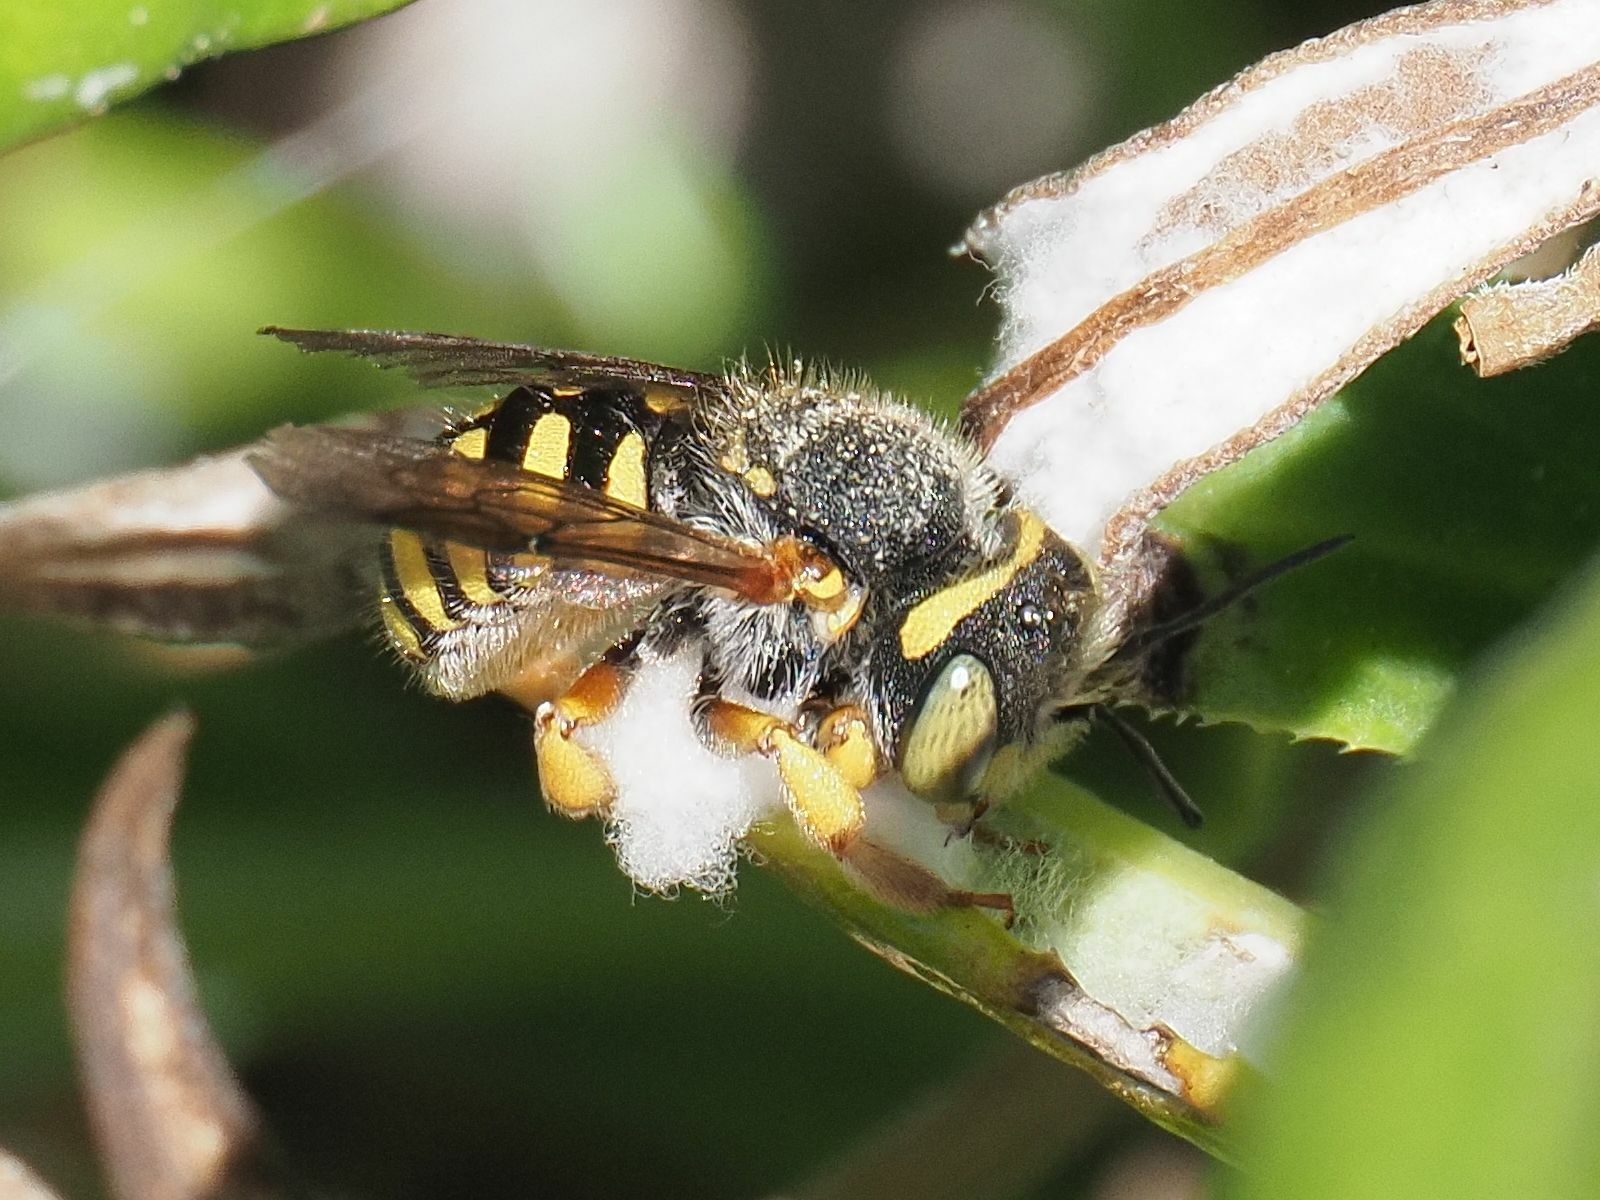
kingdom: Animalia
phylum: Arthropoda
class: Insecta
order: Hymenoptera
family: Megachilidae
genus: Anthidium
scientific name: Anthidium oblongatum
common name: Oblong wool carder bee
